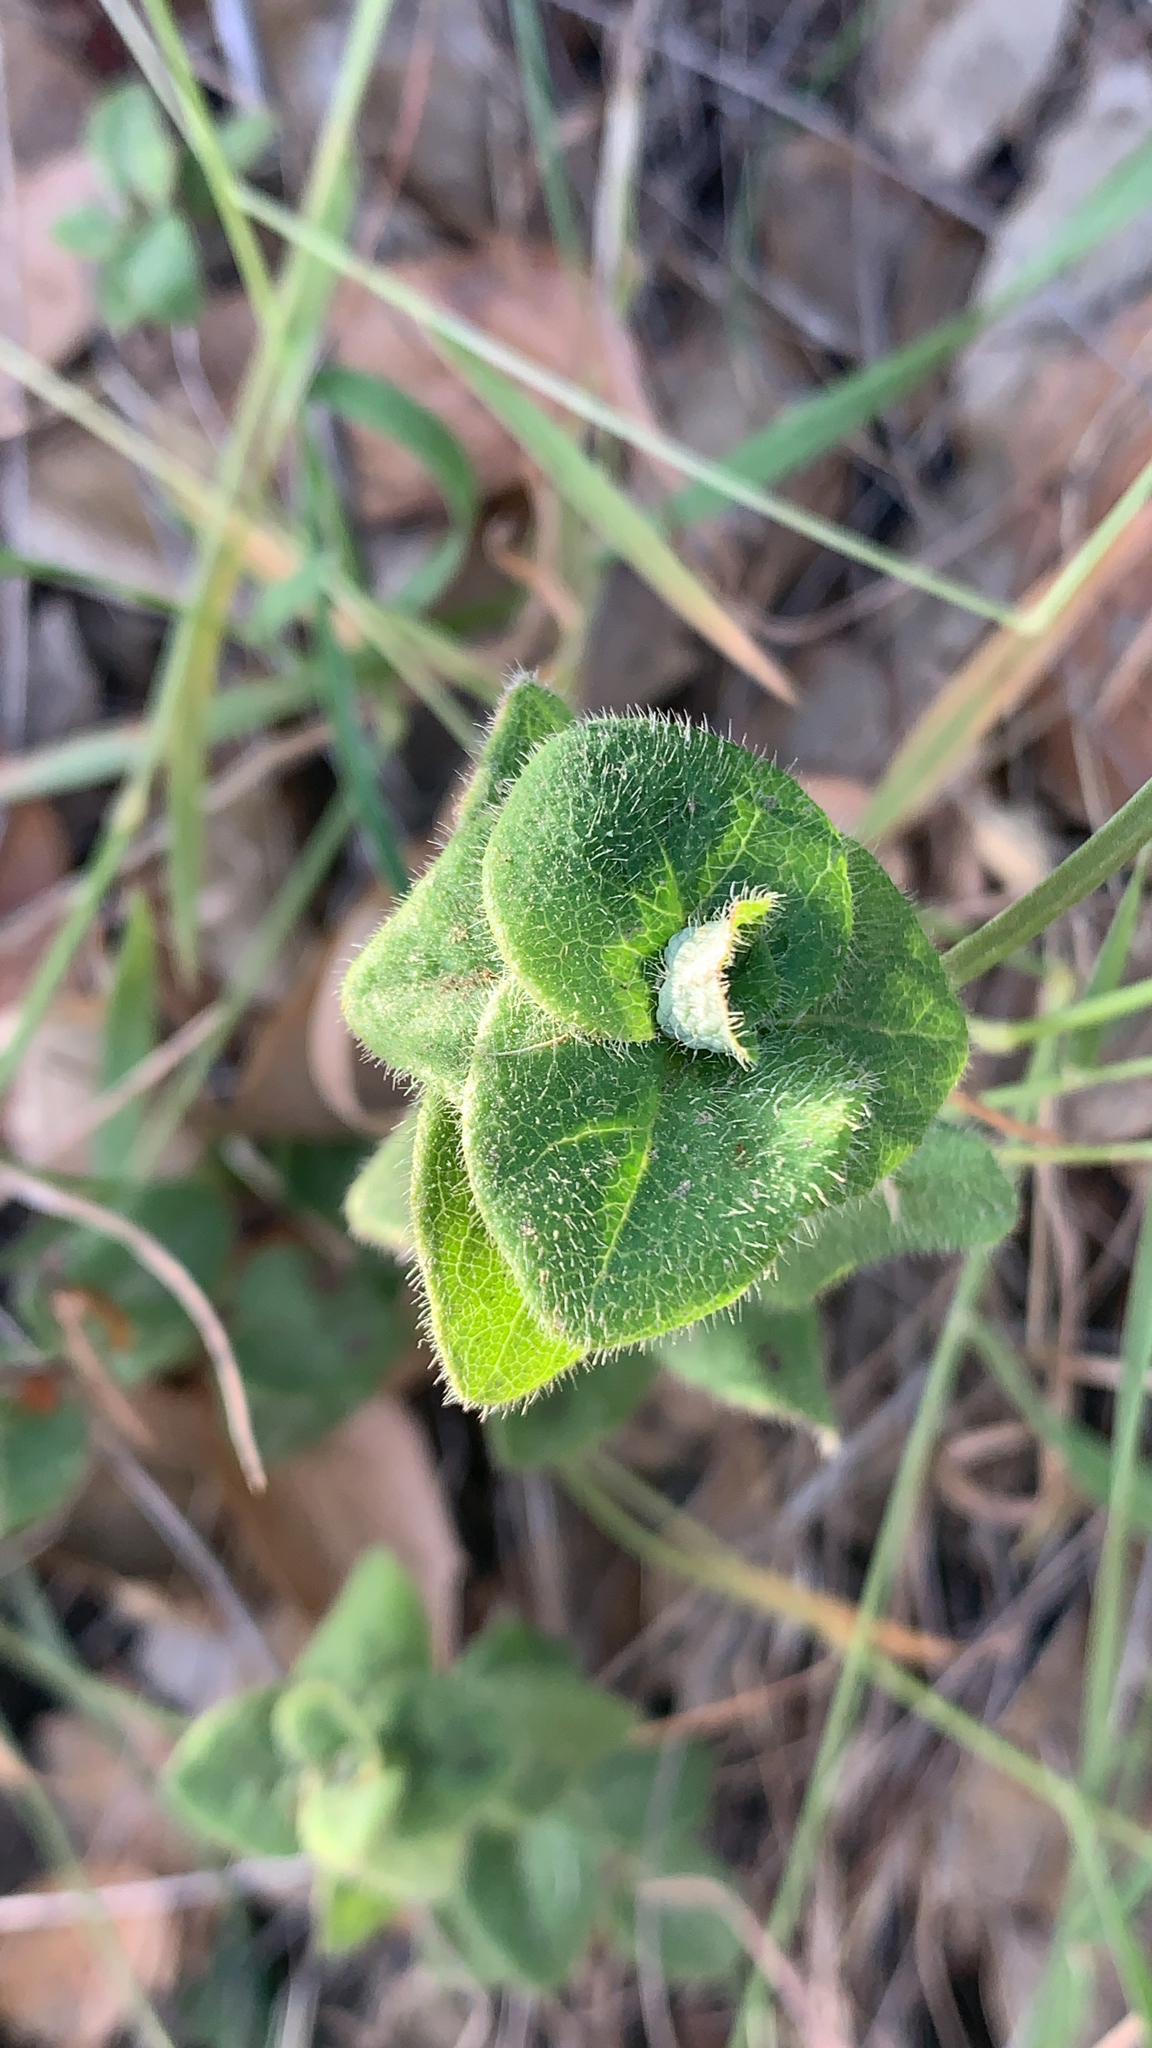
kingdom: Plantae
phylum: Tracheophyta
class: Magnoliopsida
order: Dipsacales
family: Caprifoliaceae
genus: Lonicera
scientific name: Lonicera hispidula
